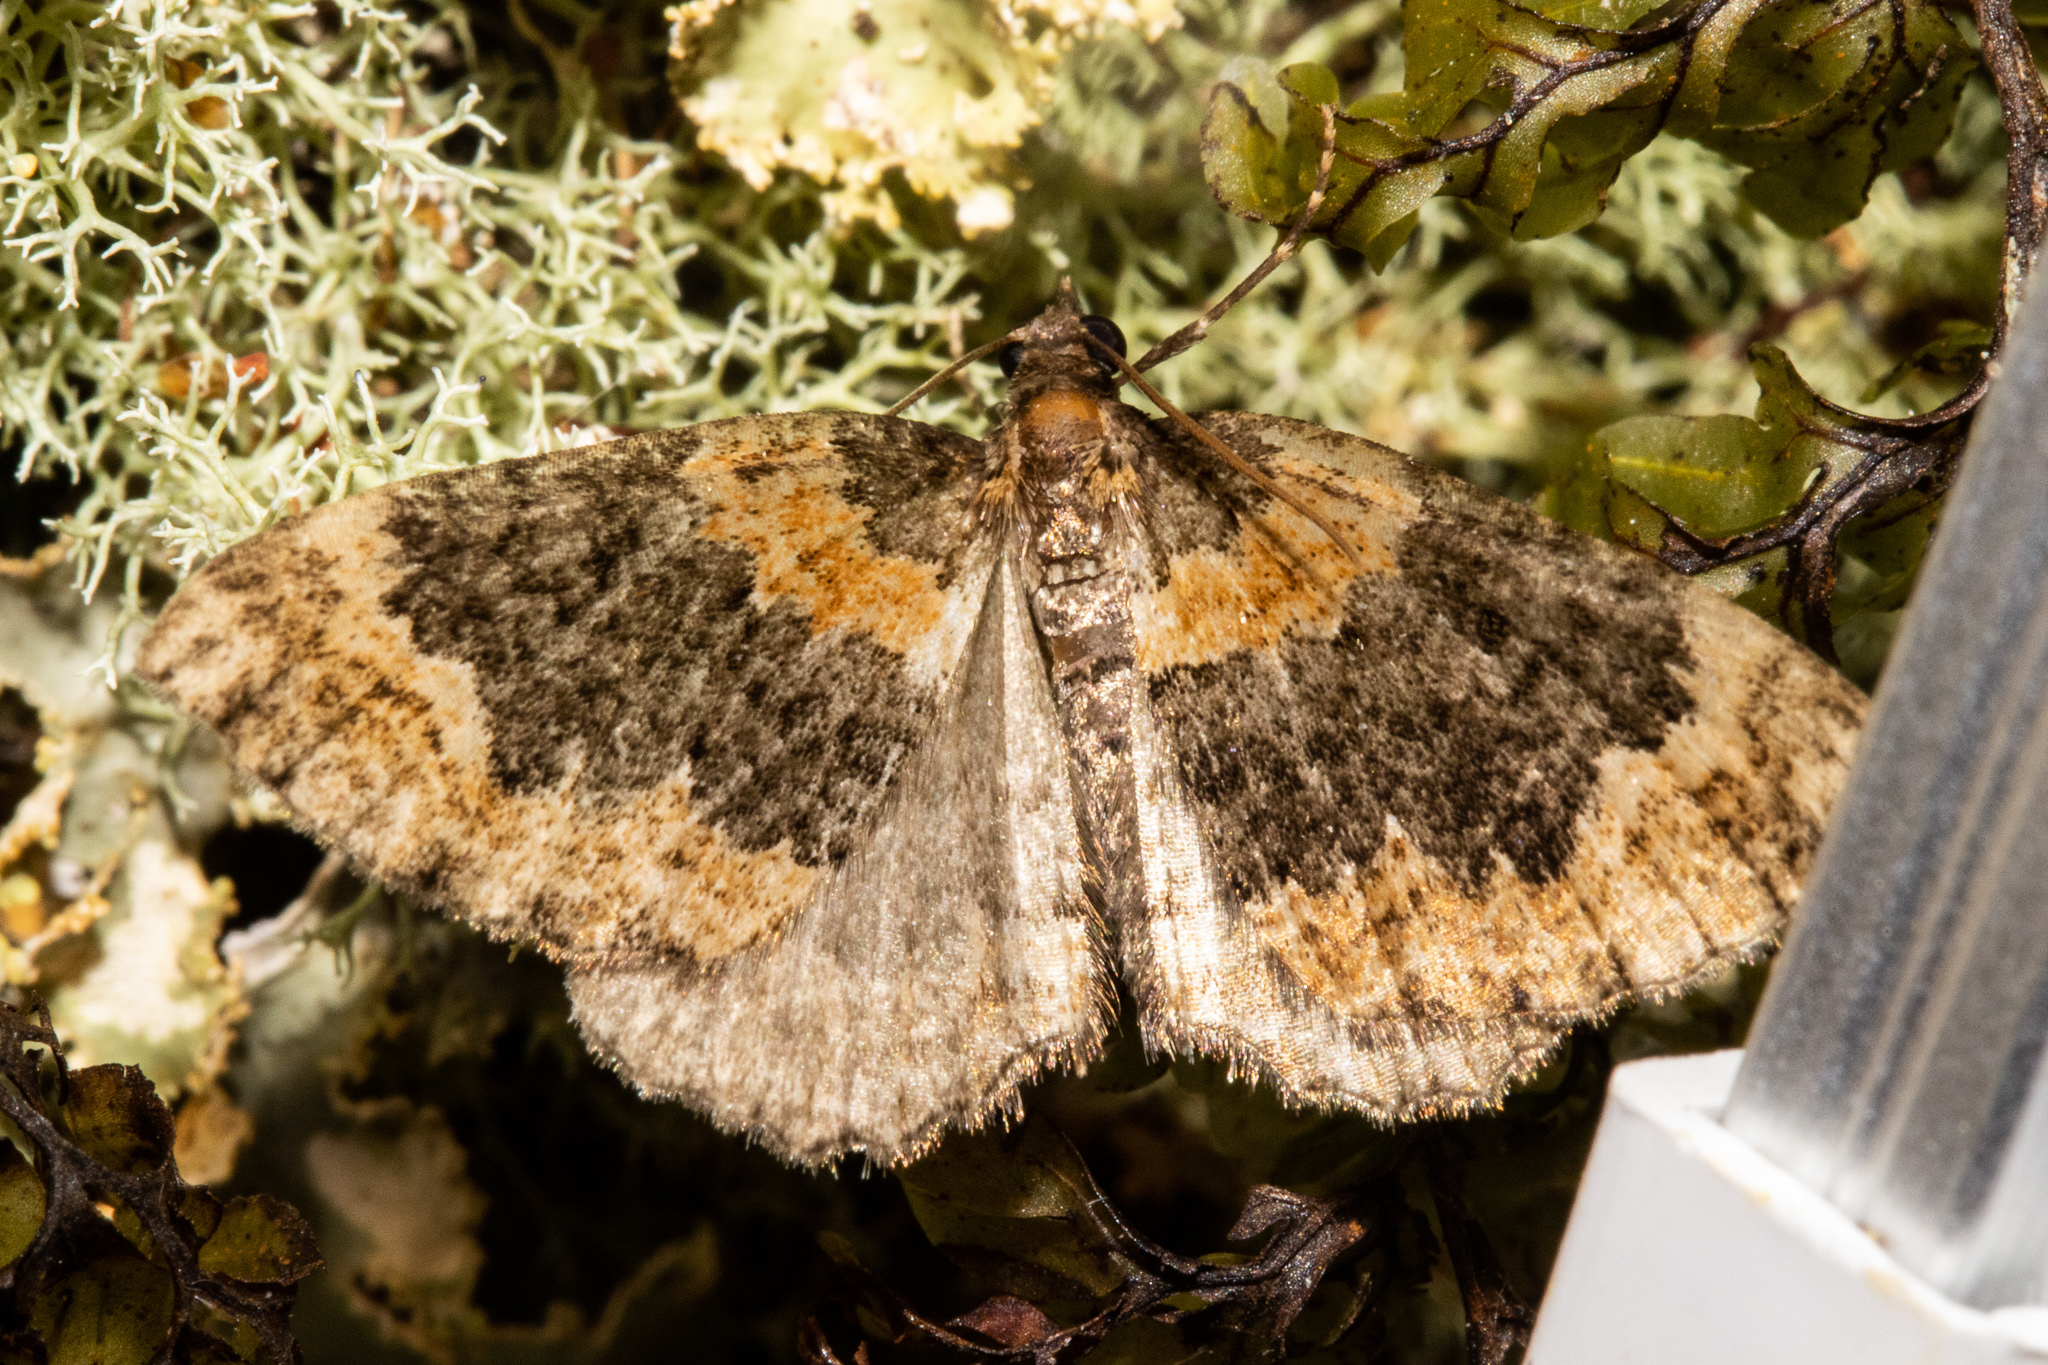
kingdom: Animalia
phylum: Arthropoda
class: Insecta
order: Lepidoptera
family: Geometridae
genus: Hydriomena
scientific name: Hydriomena hemizona
